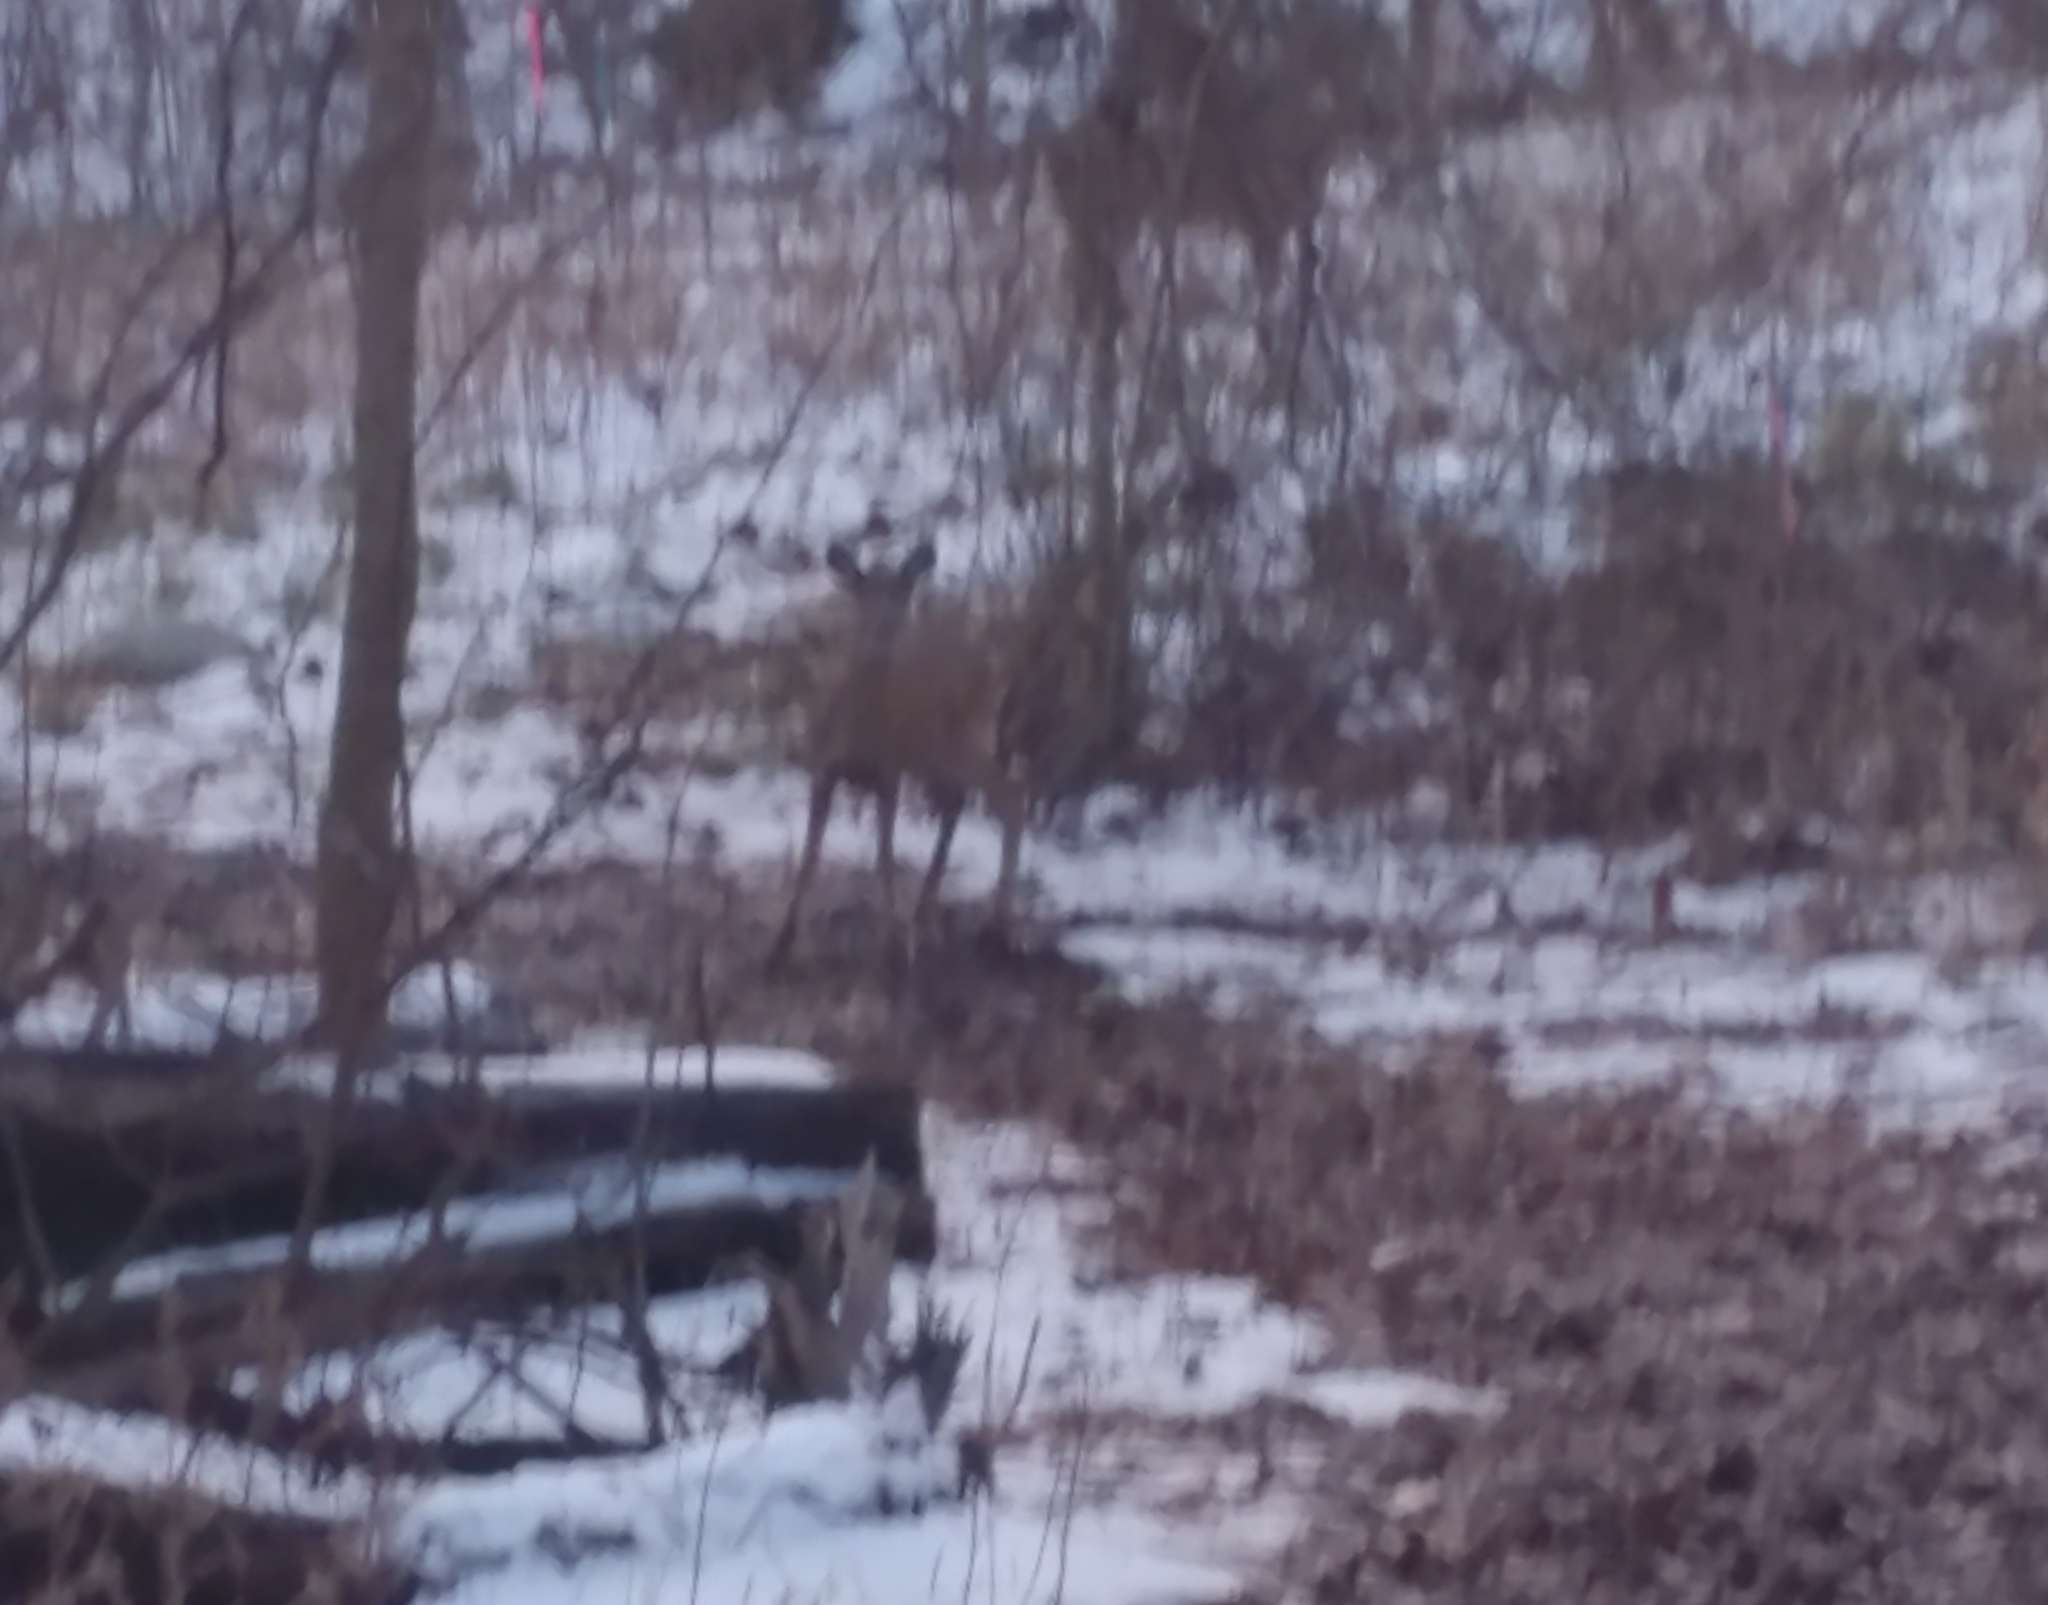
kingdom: Animalia
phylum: Chordata
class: Mammalia
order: Artiodactyla
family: Cervidae
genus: Odocoileus
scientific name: Odocoileus virginianus
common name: White-tailed deer
